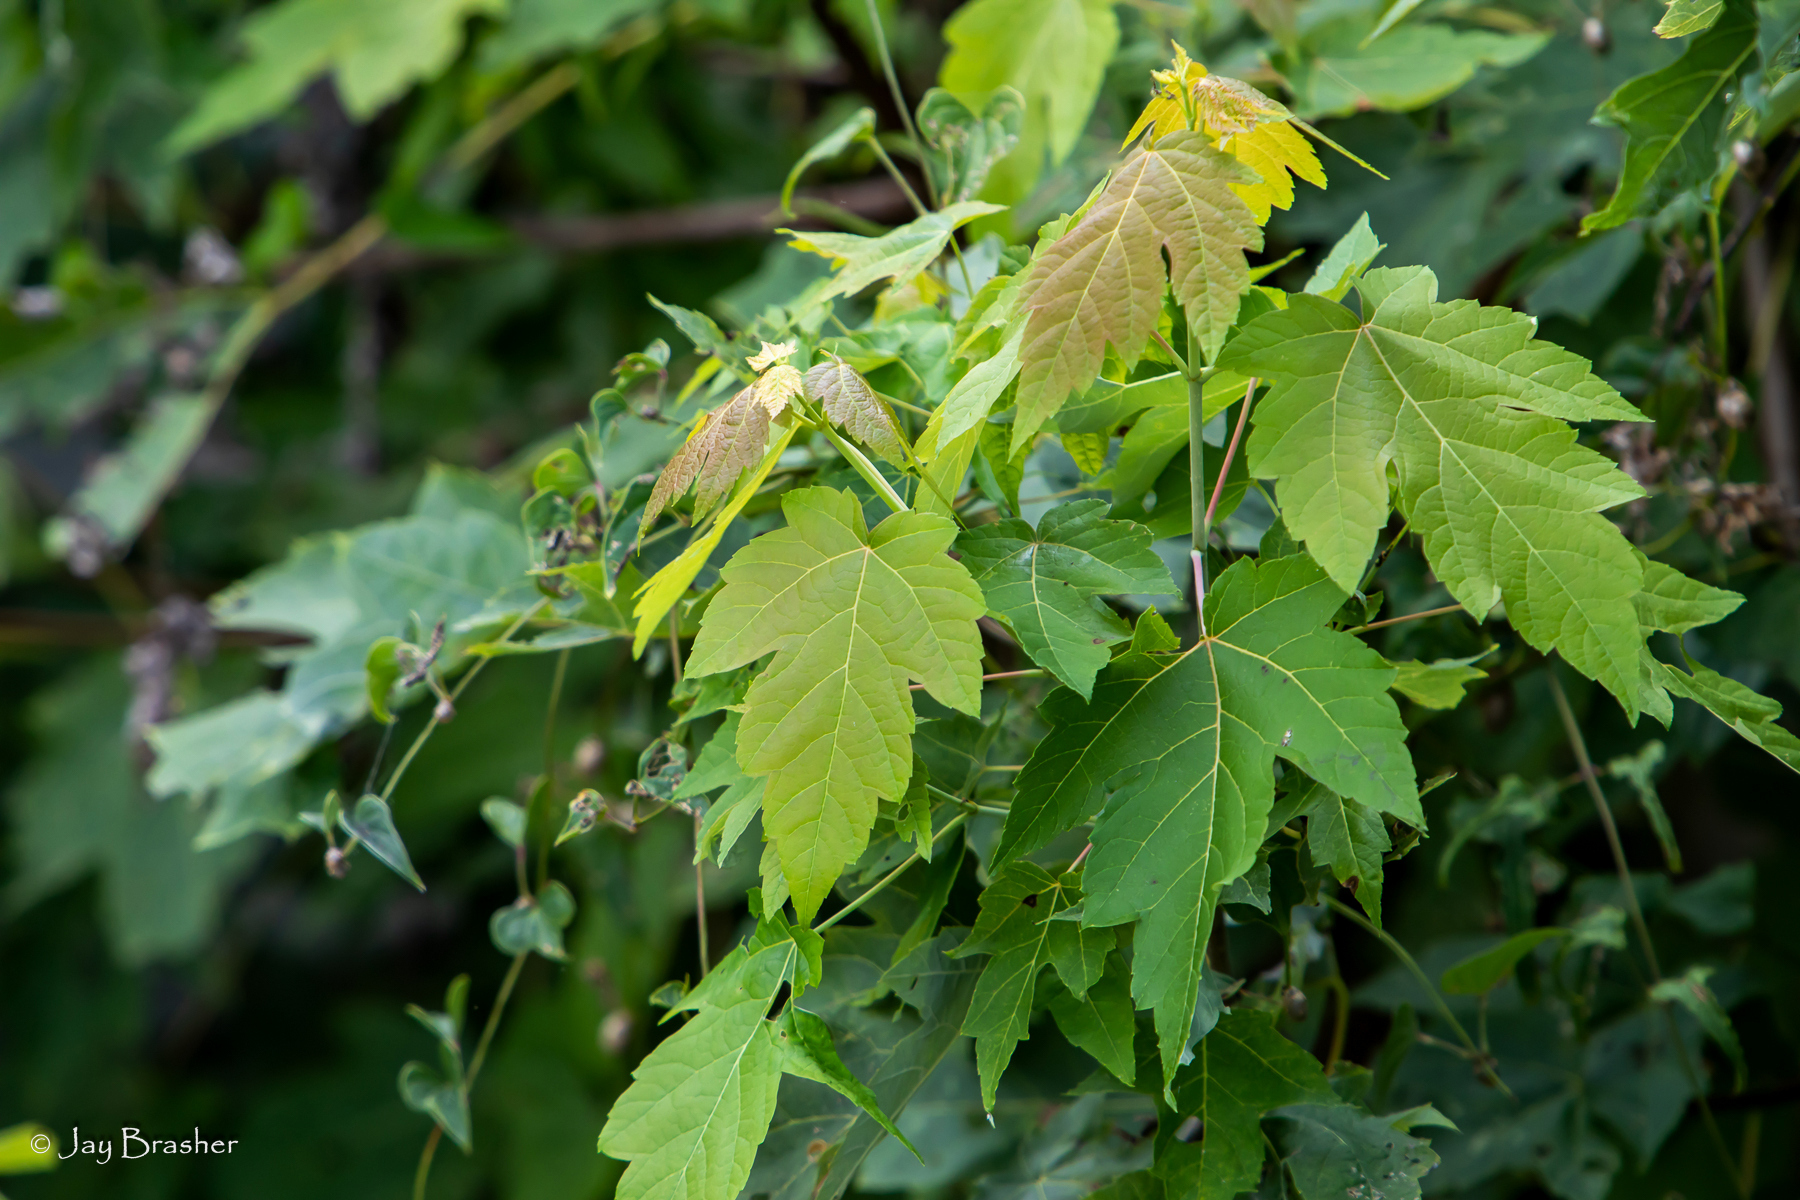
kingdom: Plantae
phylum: Tracheophyta
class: Magnoliopsida
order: Sapindales
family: Sapindaceae
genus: Acer
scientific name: Acer rubrum
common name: Red maple
